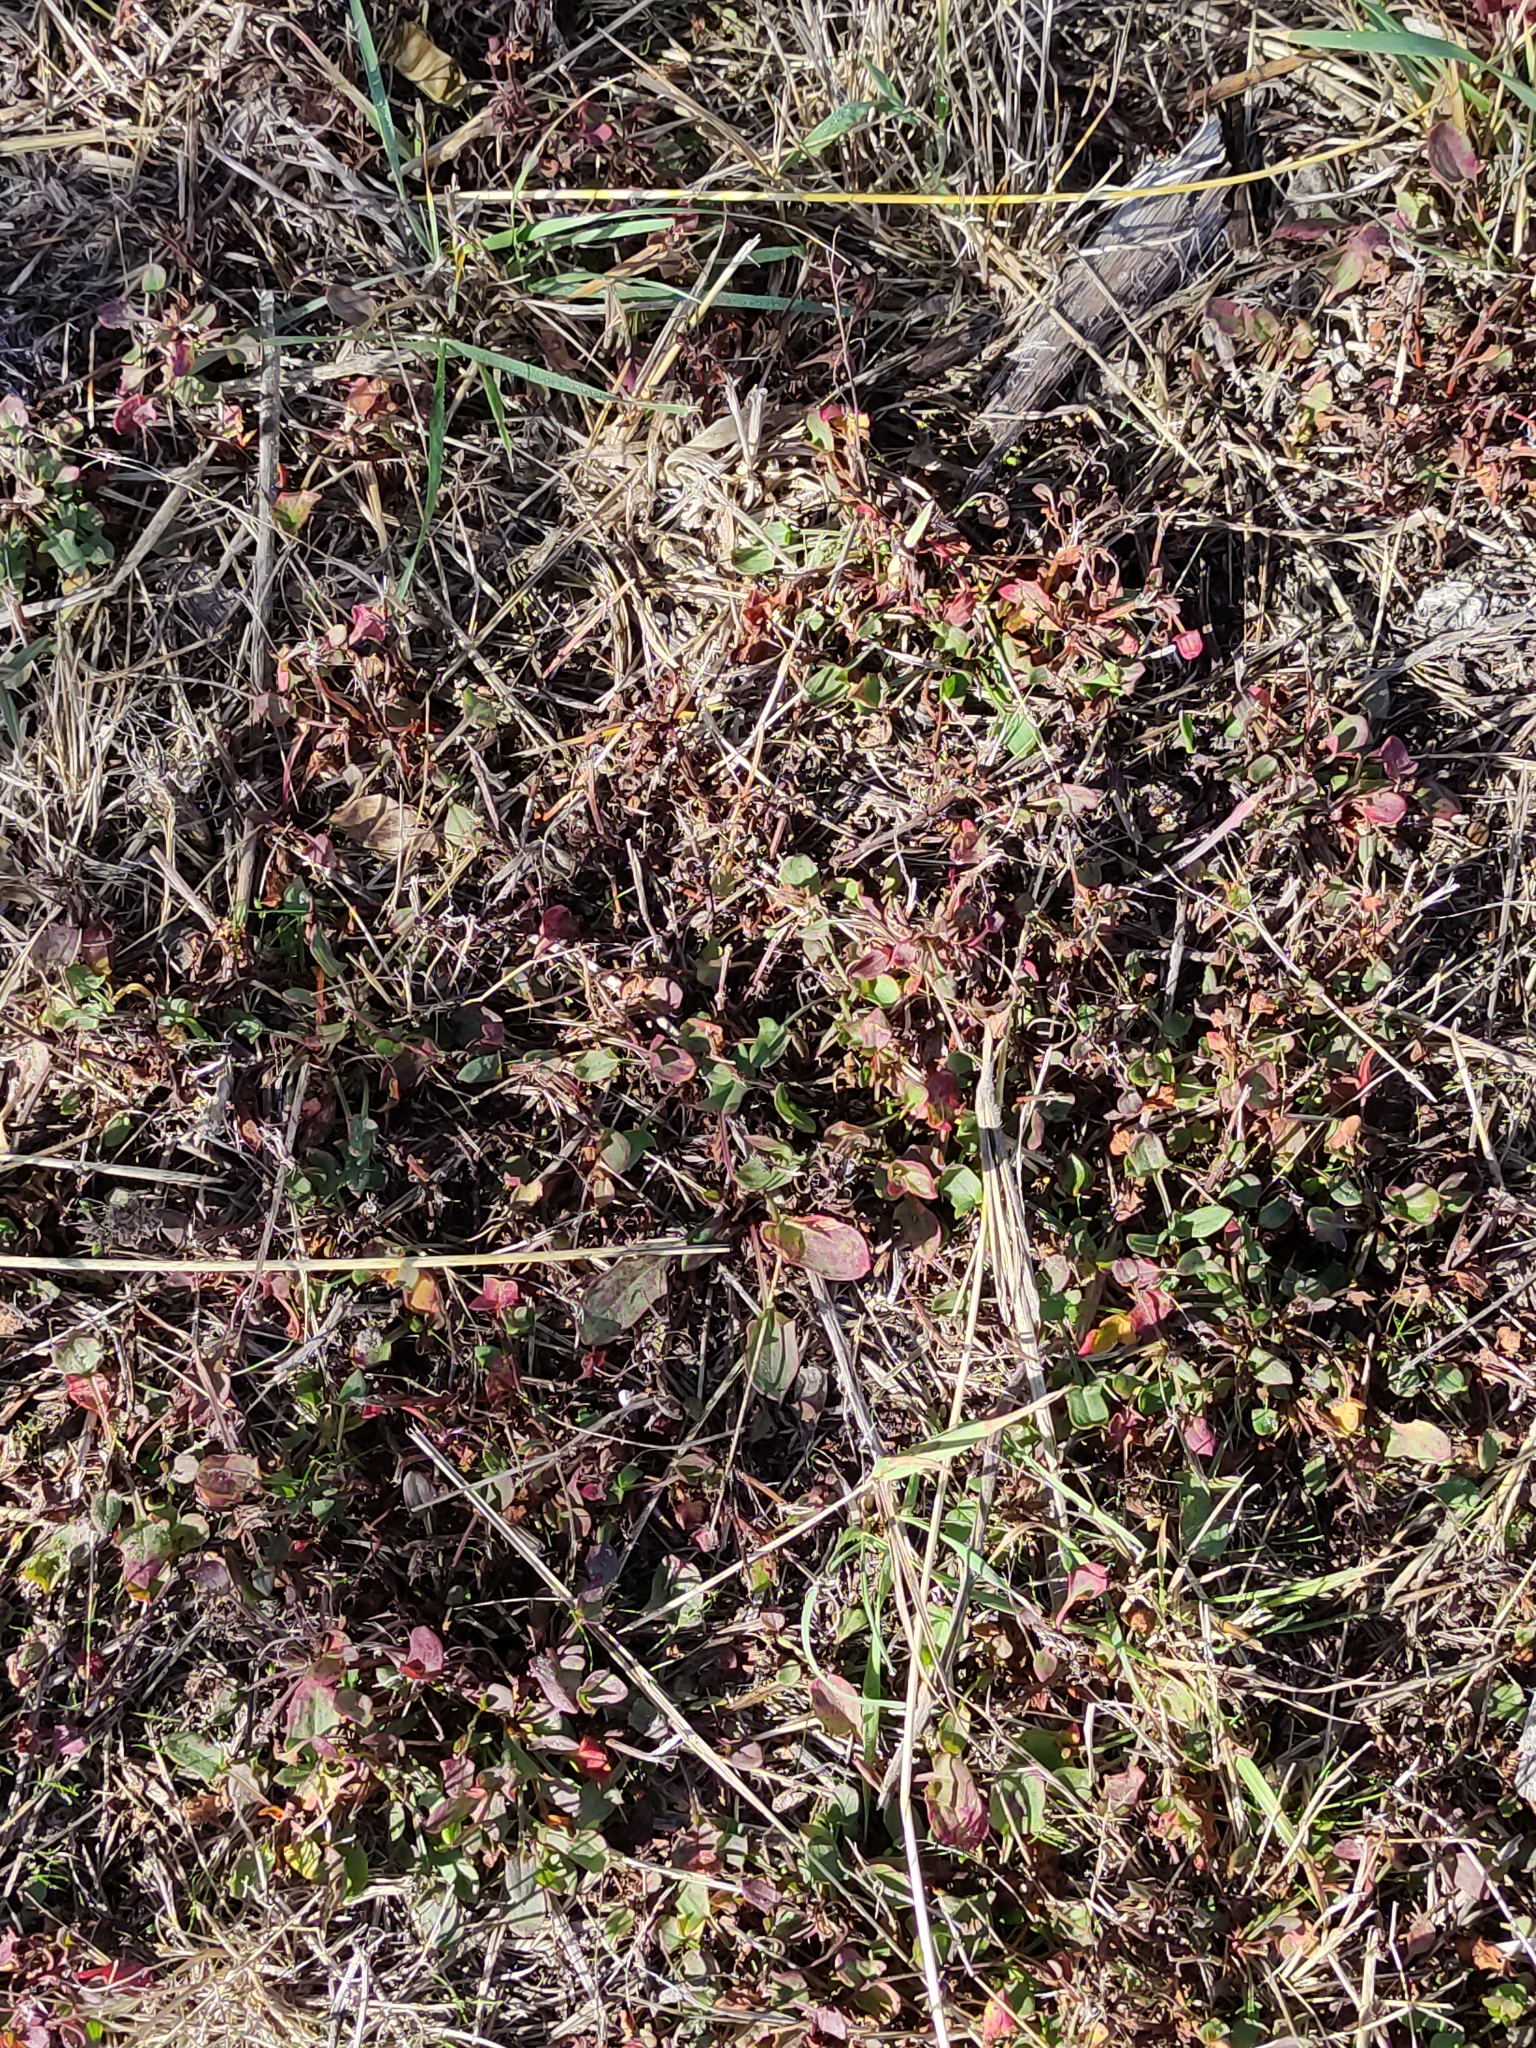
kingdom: Plantae
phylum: Tracheophyta
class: Magnoliopsida
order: Caryophyllales
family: Polygonaceae
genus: Rumex
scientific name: Rumex acetosella
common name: Common sheep sorrel
